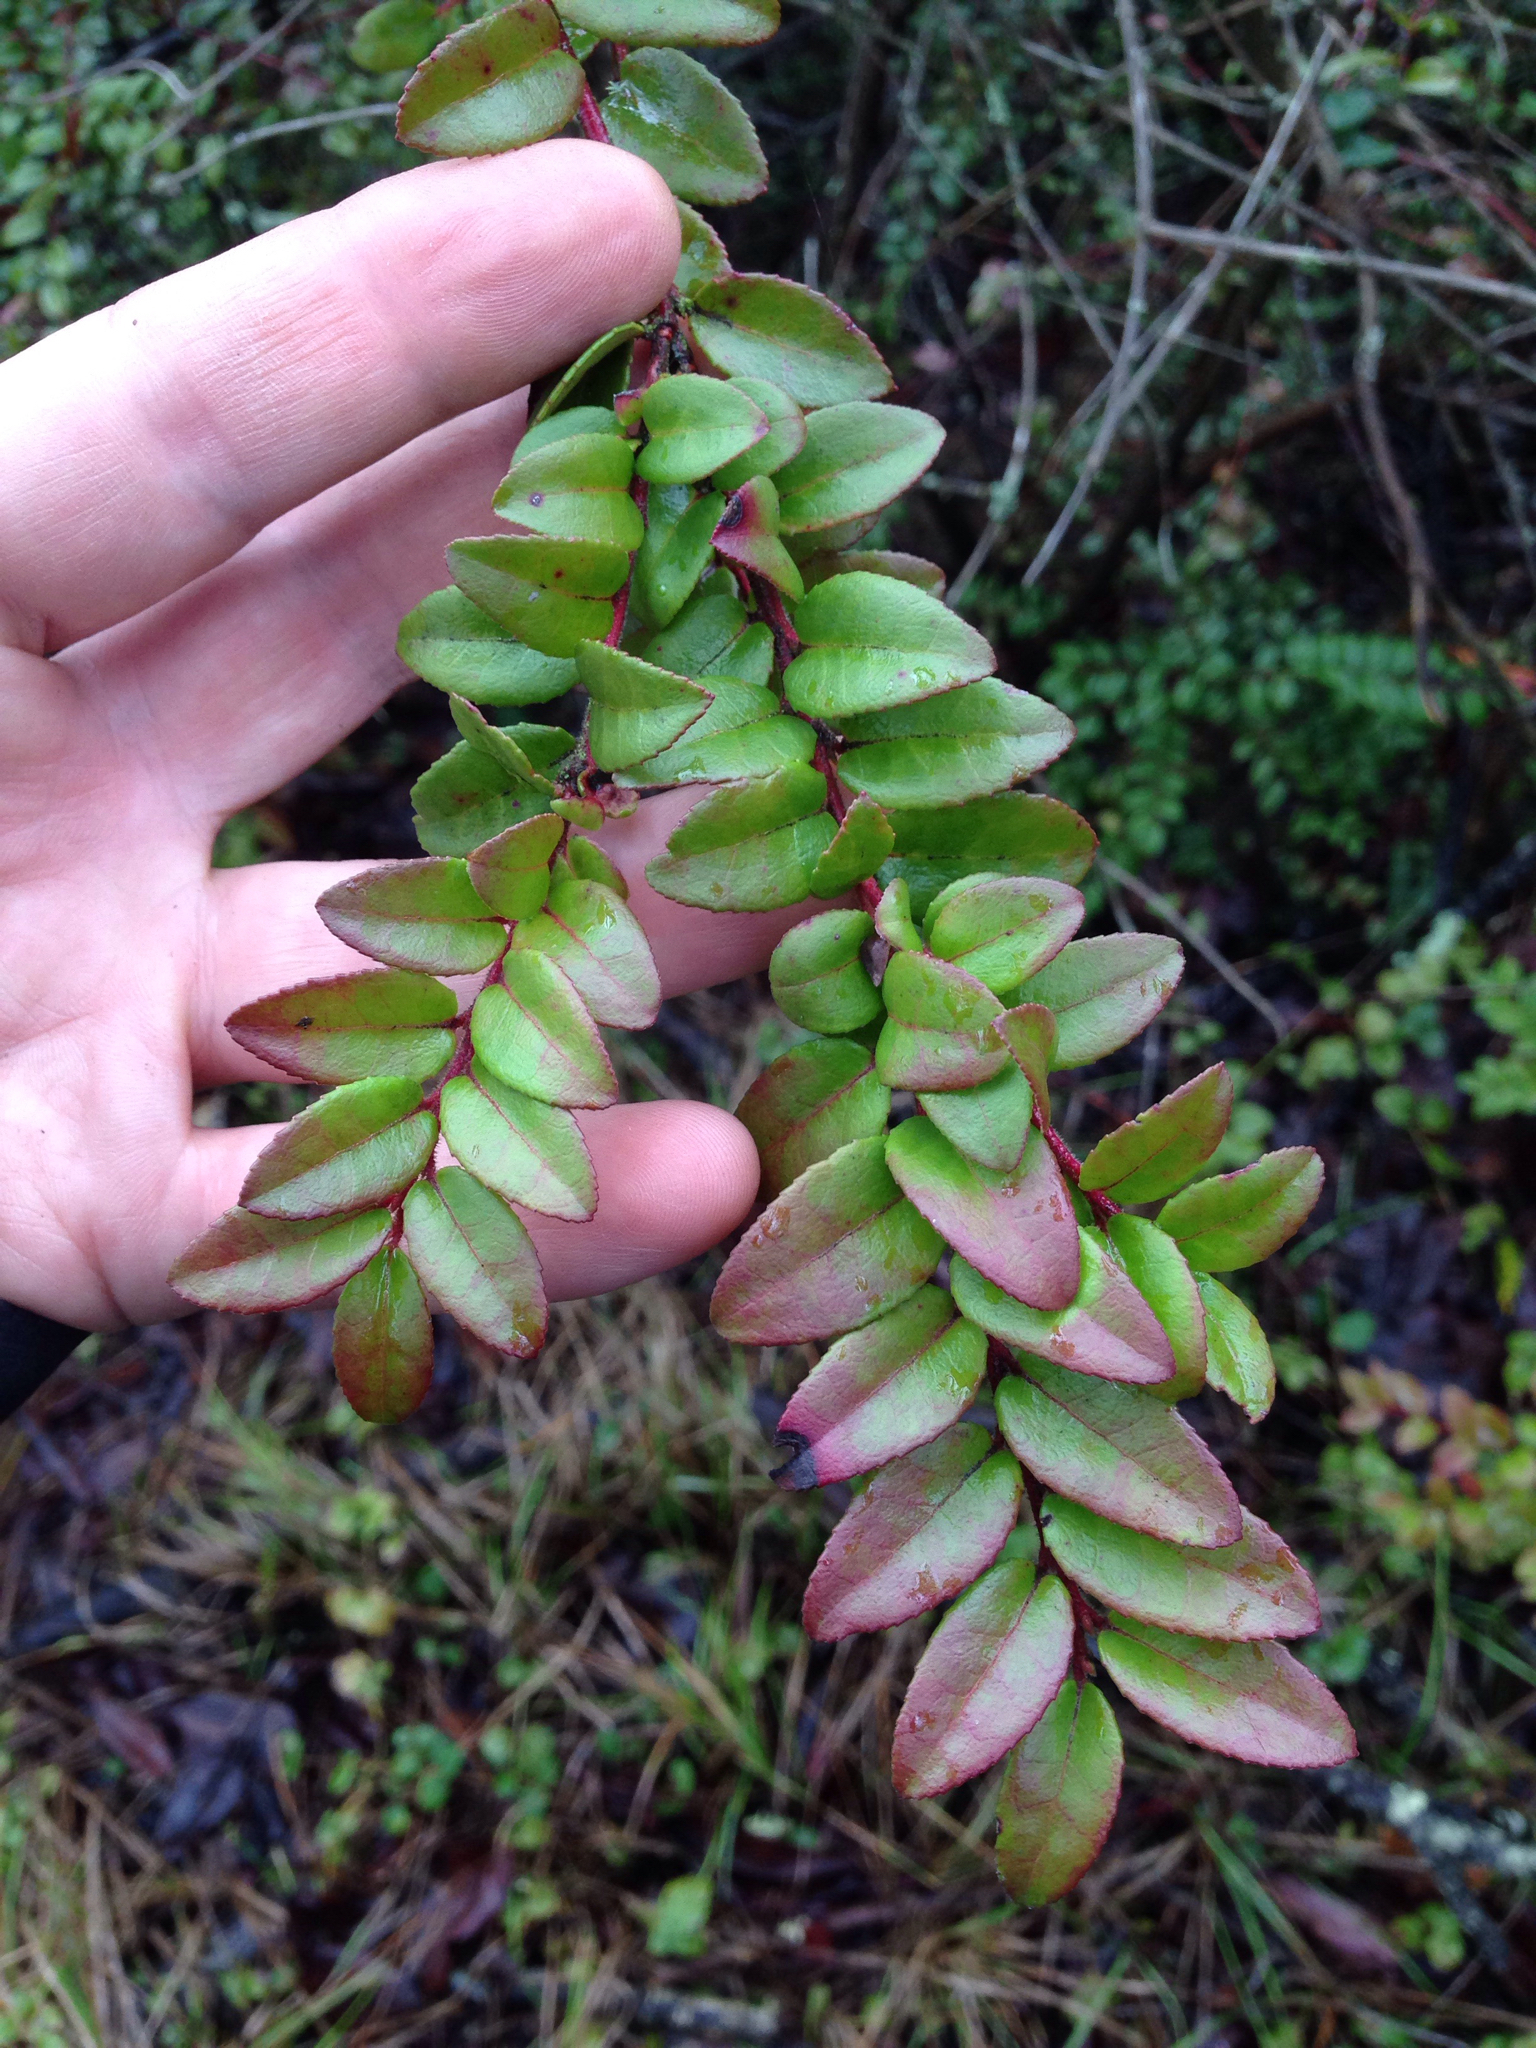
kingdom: Plantae
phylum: Tracheophyta
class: Magnoliopsida
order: Ericales
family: Ericaceae
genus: Vaccinium
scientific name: Vaccinium ovatum
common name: California-huckleberry
